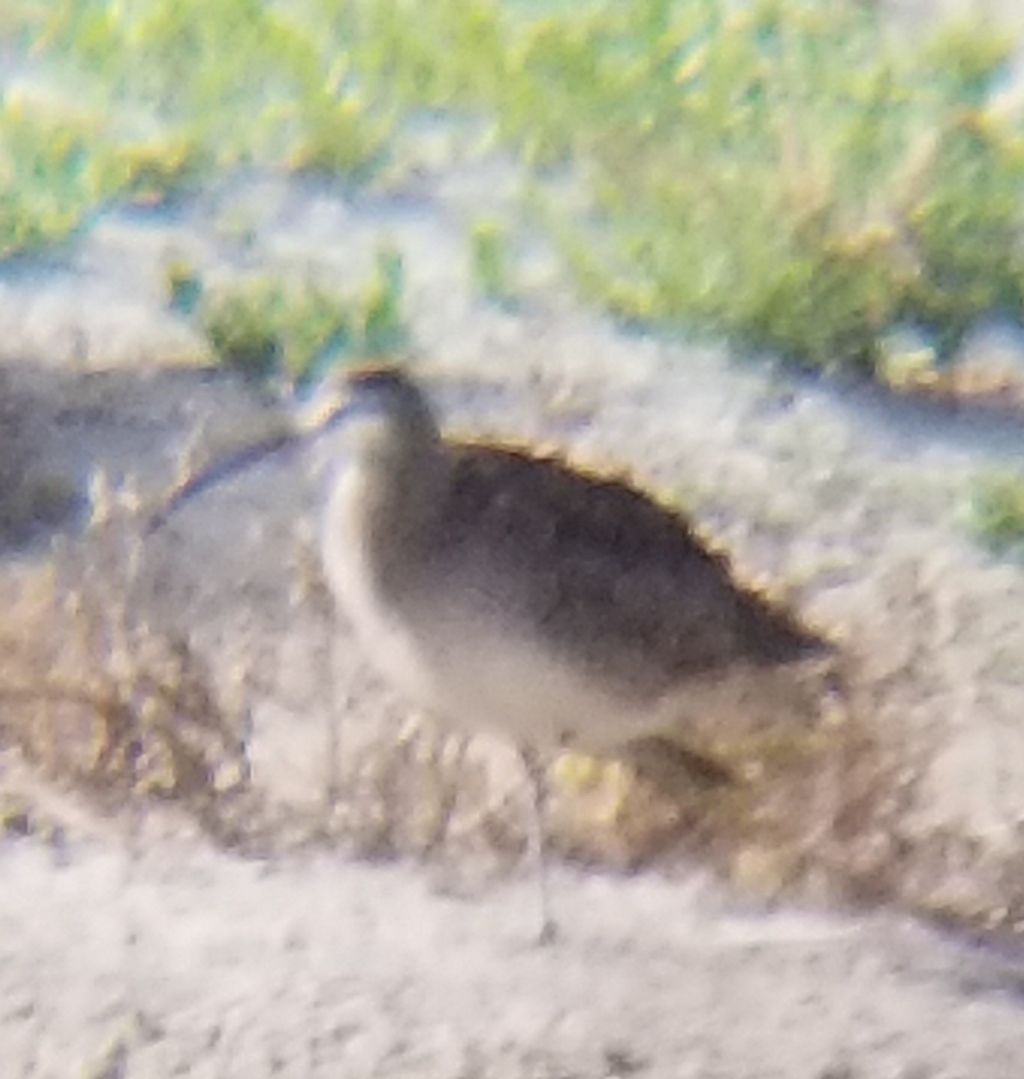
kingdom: Animalia
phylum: Chordata
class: Aves
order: Charadriiformes
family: Scolopacidae
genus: Numenius
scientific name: Numenius phaeopus
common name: Whimbrel
